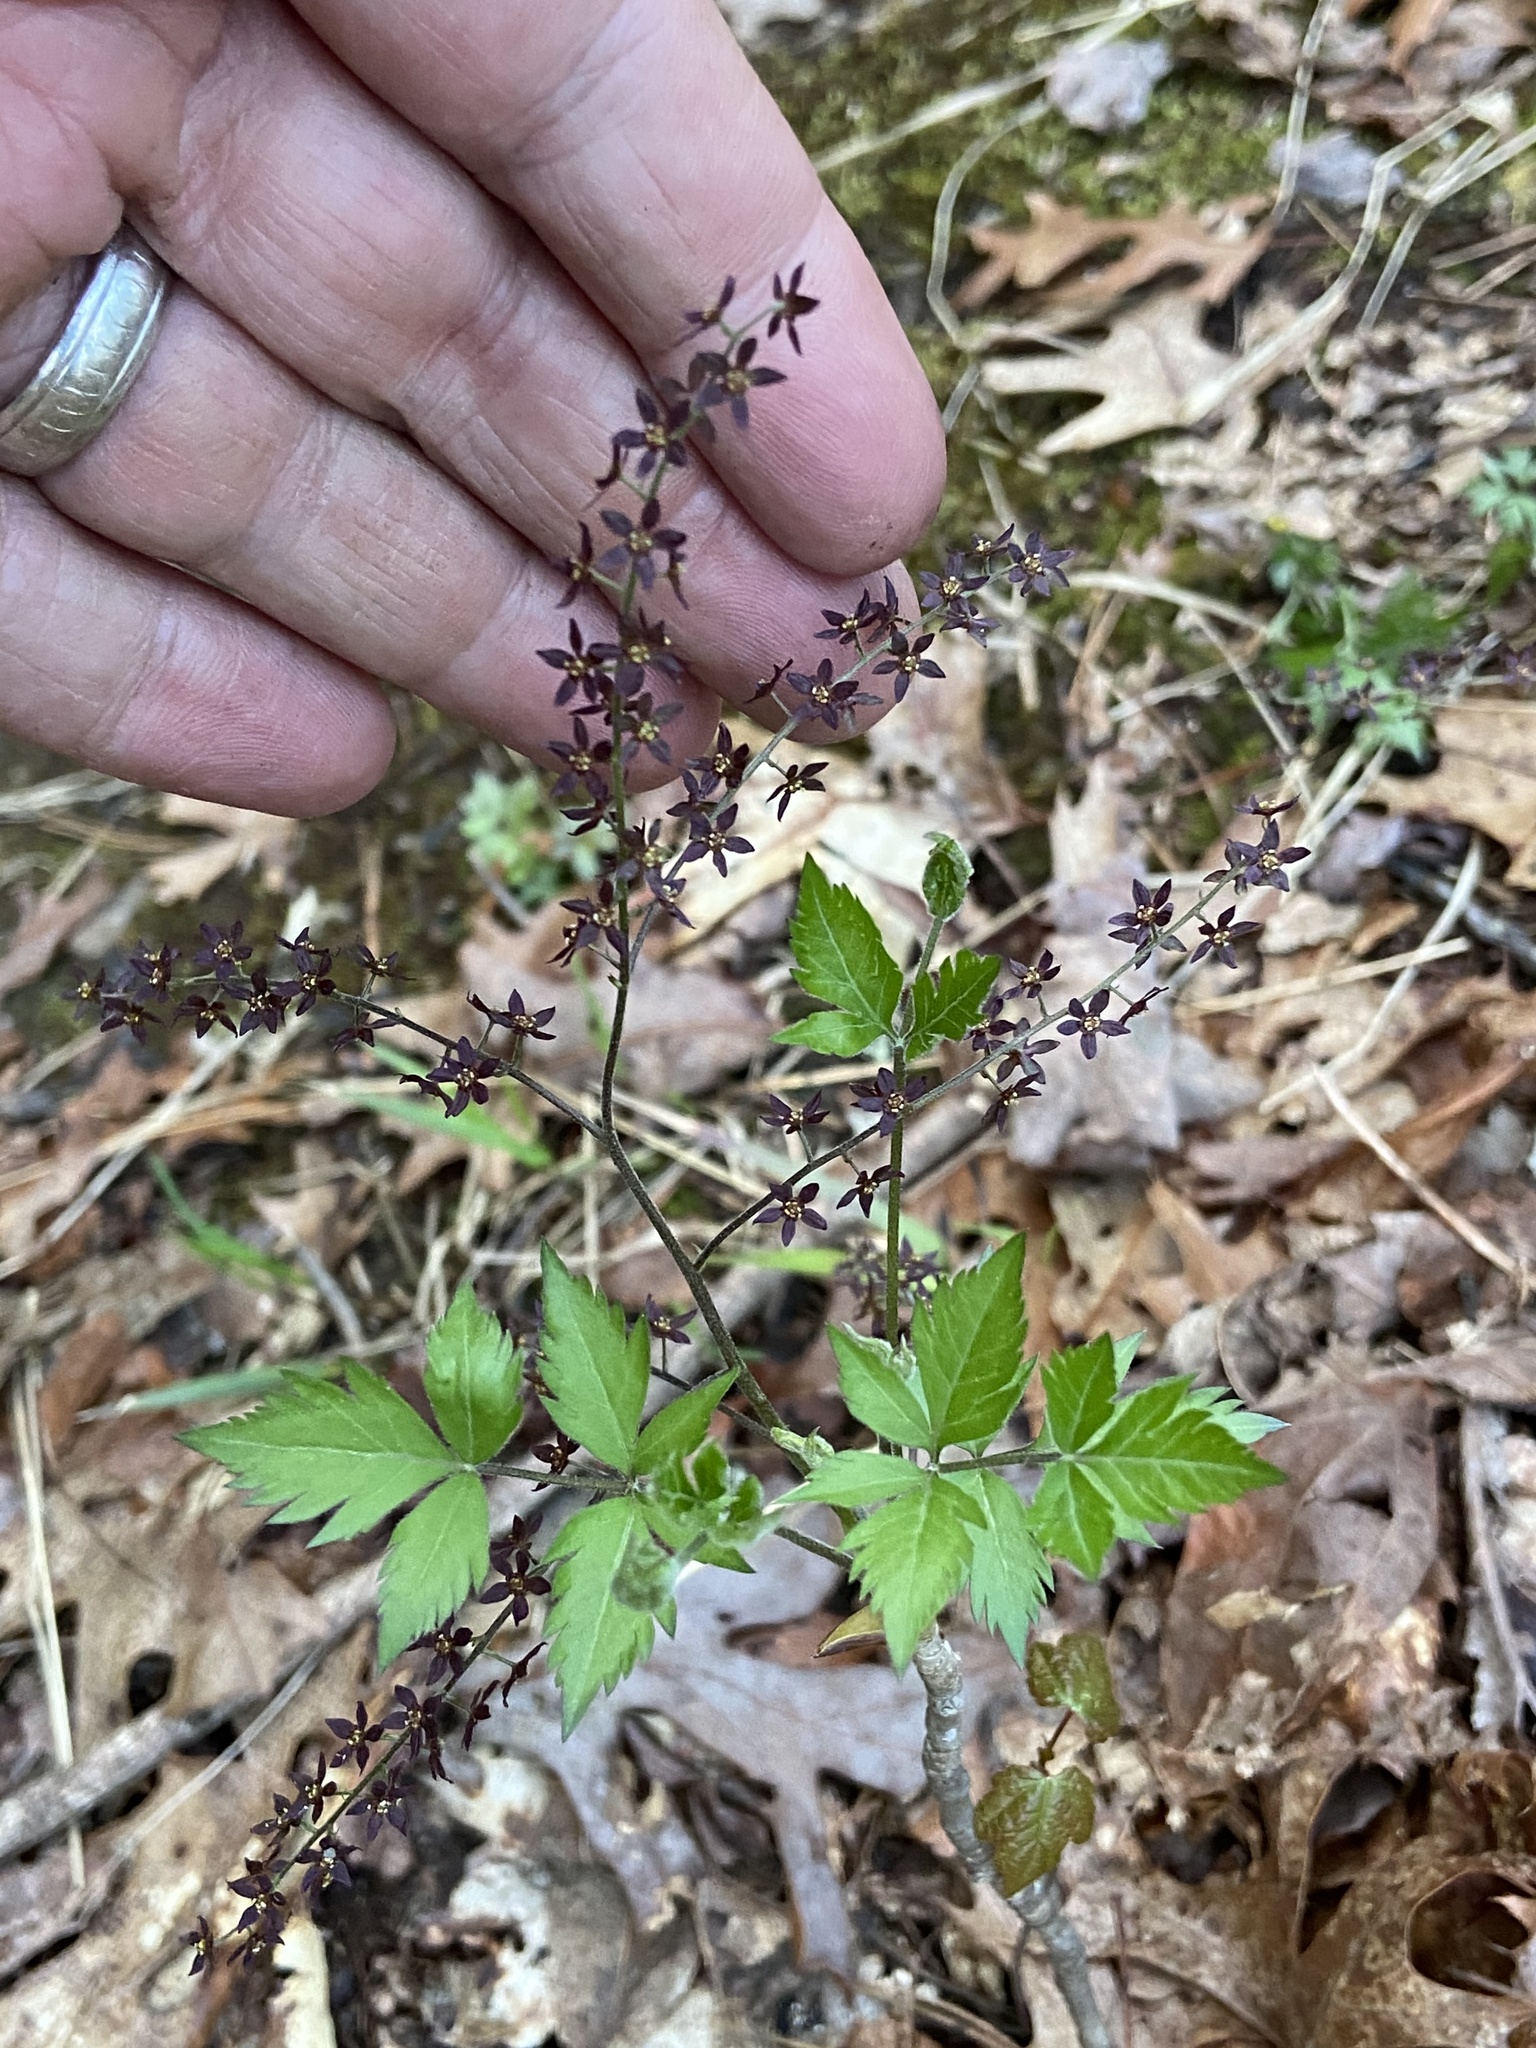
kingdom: Plantae
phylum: Tracheophyta
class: Magnoliopsida
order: Ranunculales
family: Ranunculaceae
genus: Xanthorhiza
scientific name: Xanthorhiza simplicissima
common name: Yellowroot
